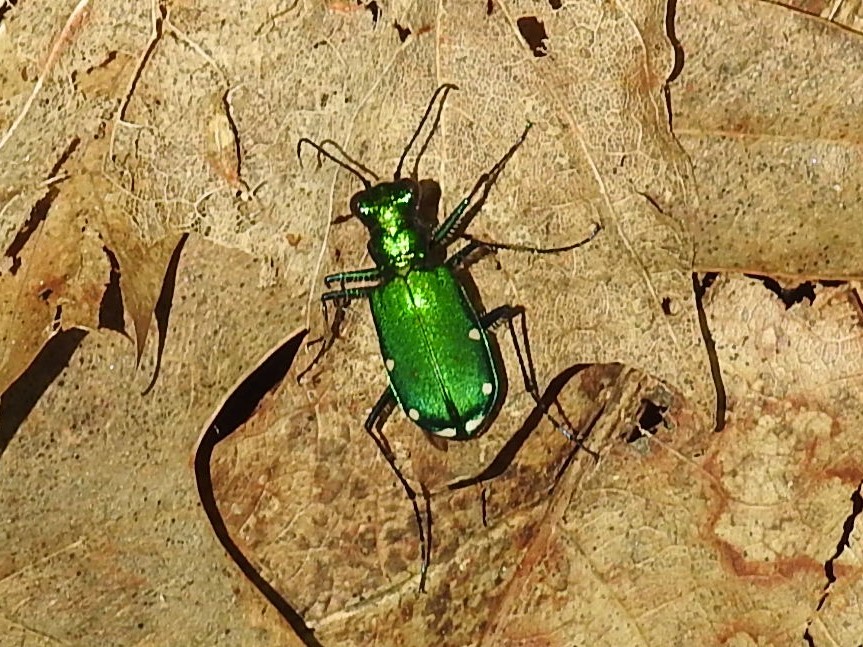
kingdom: Animalia
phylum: Arthropoda
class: Insecta
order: Coleoptera
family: Carabidae
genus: Cicindela
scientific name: Cicindela sexguttata
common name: Six-spotted tiger beetle
